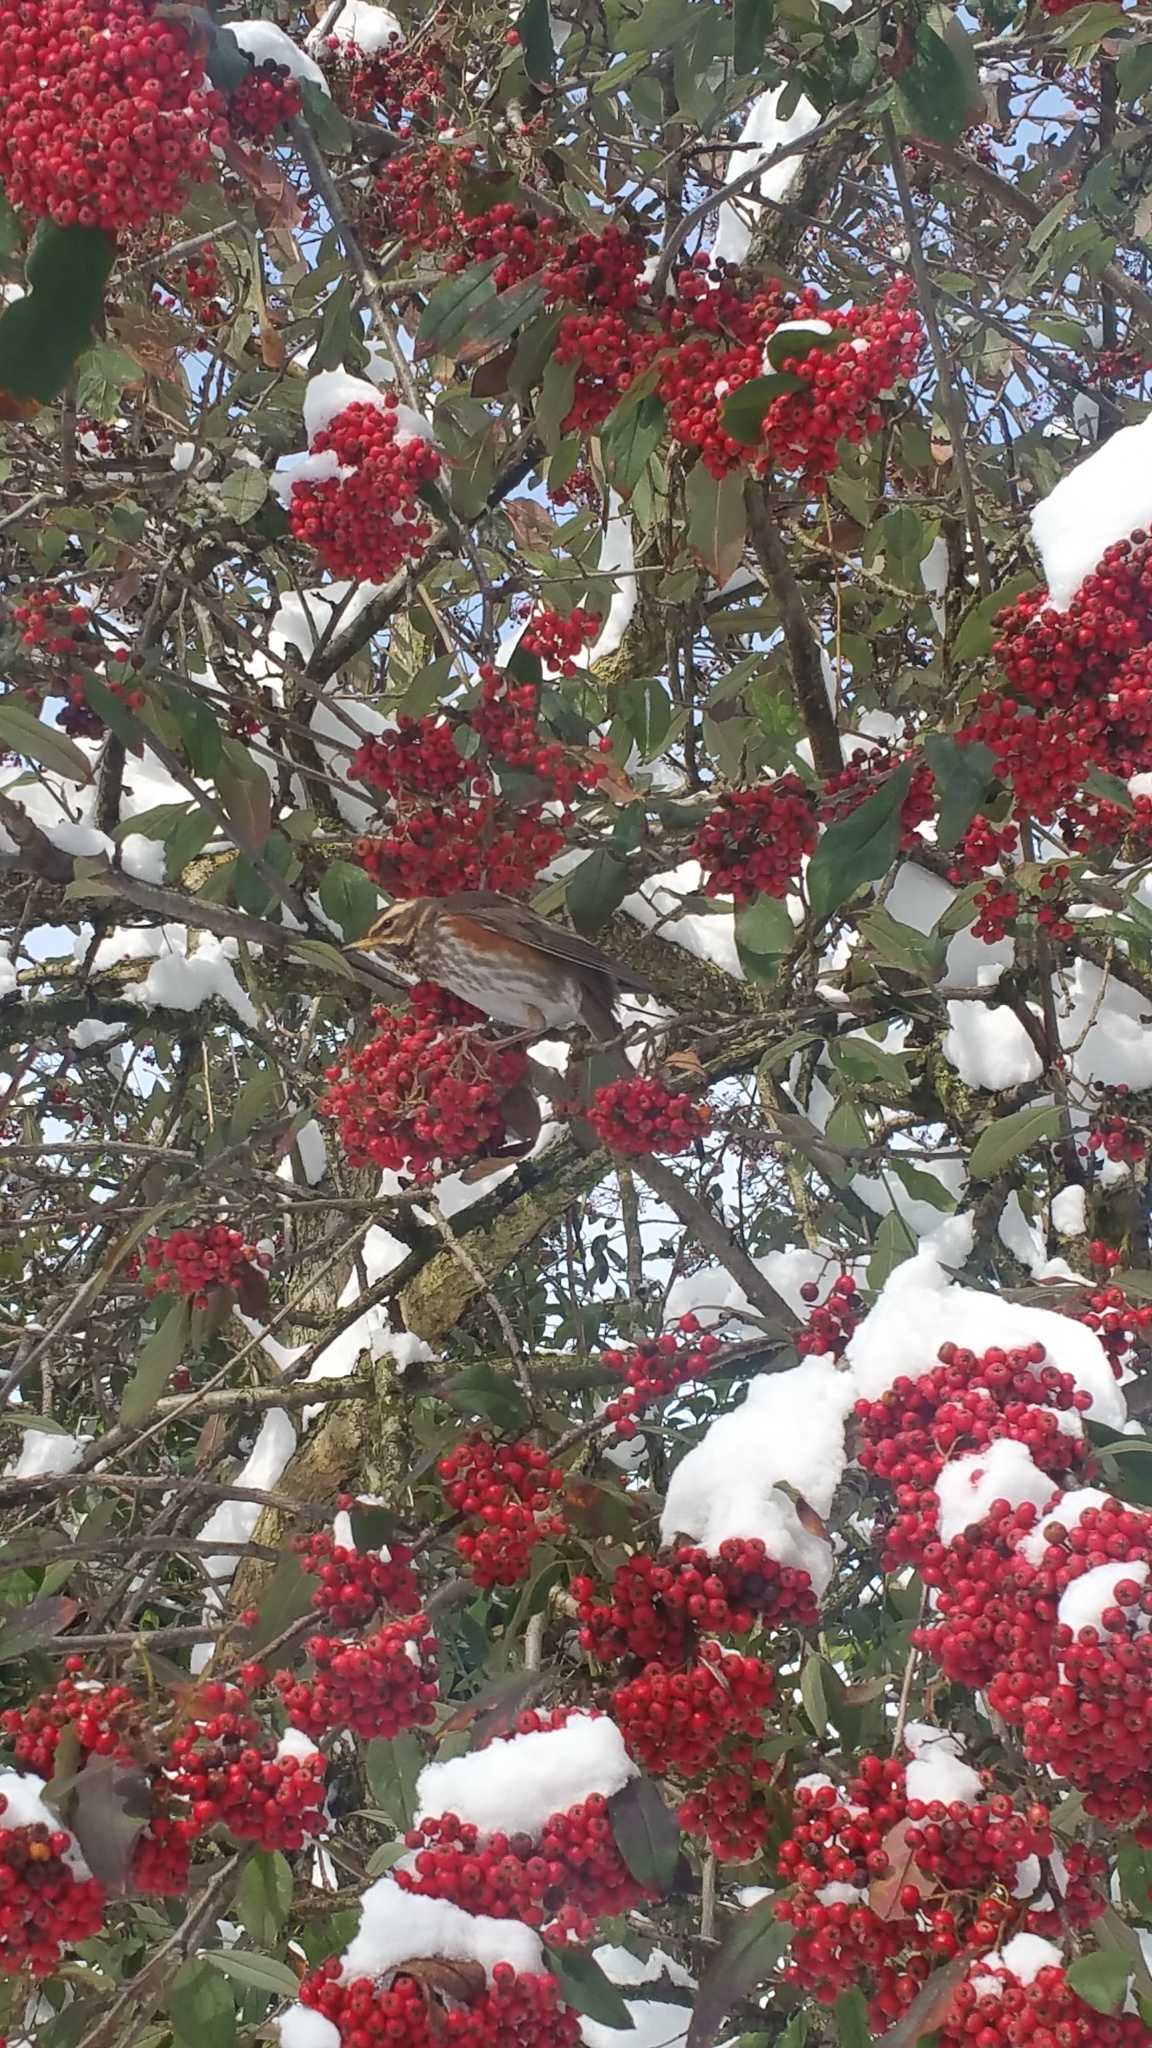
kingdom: Animalia
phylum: Chordata
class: Aves
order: Passeriformes
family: Turdidae
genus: Turdus
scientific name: Turdus iliacus
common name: Redwing
